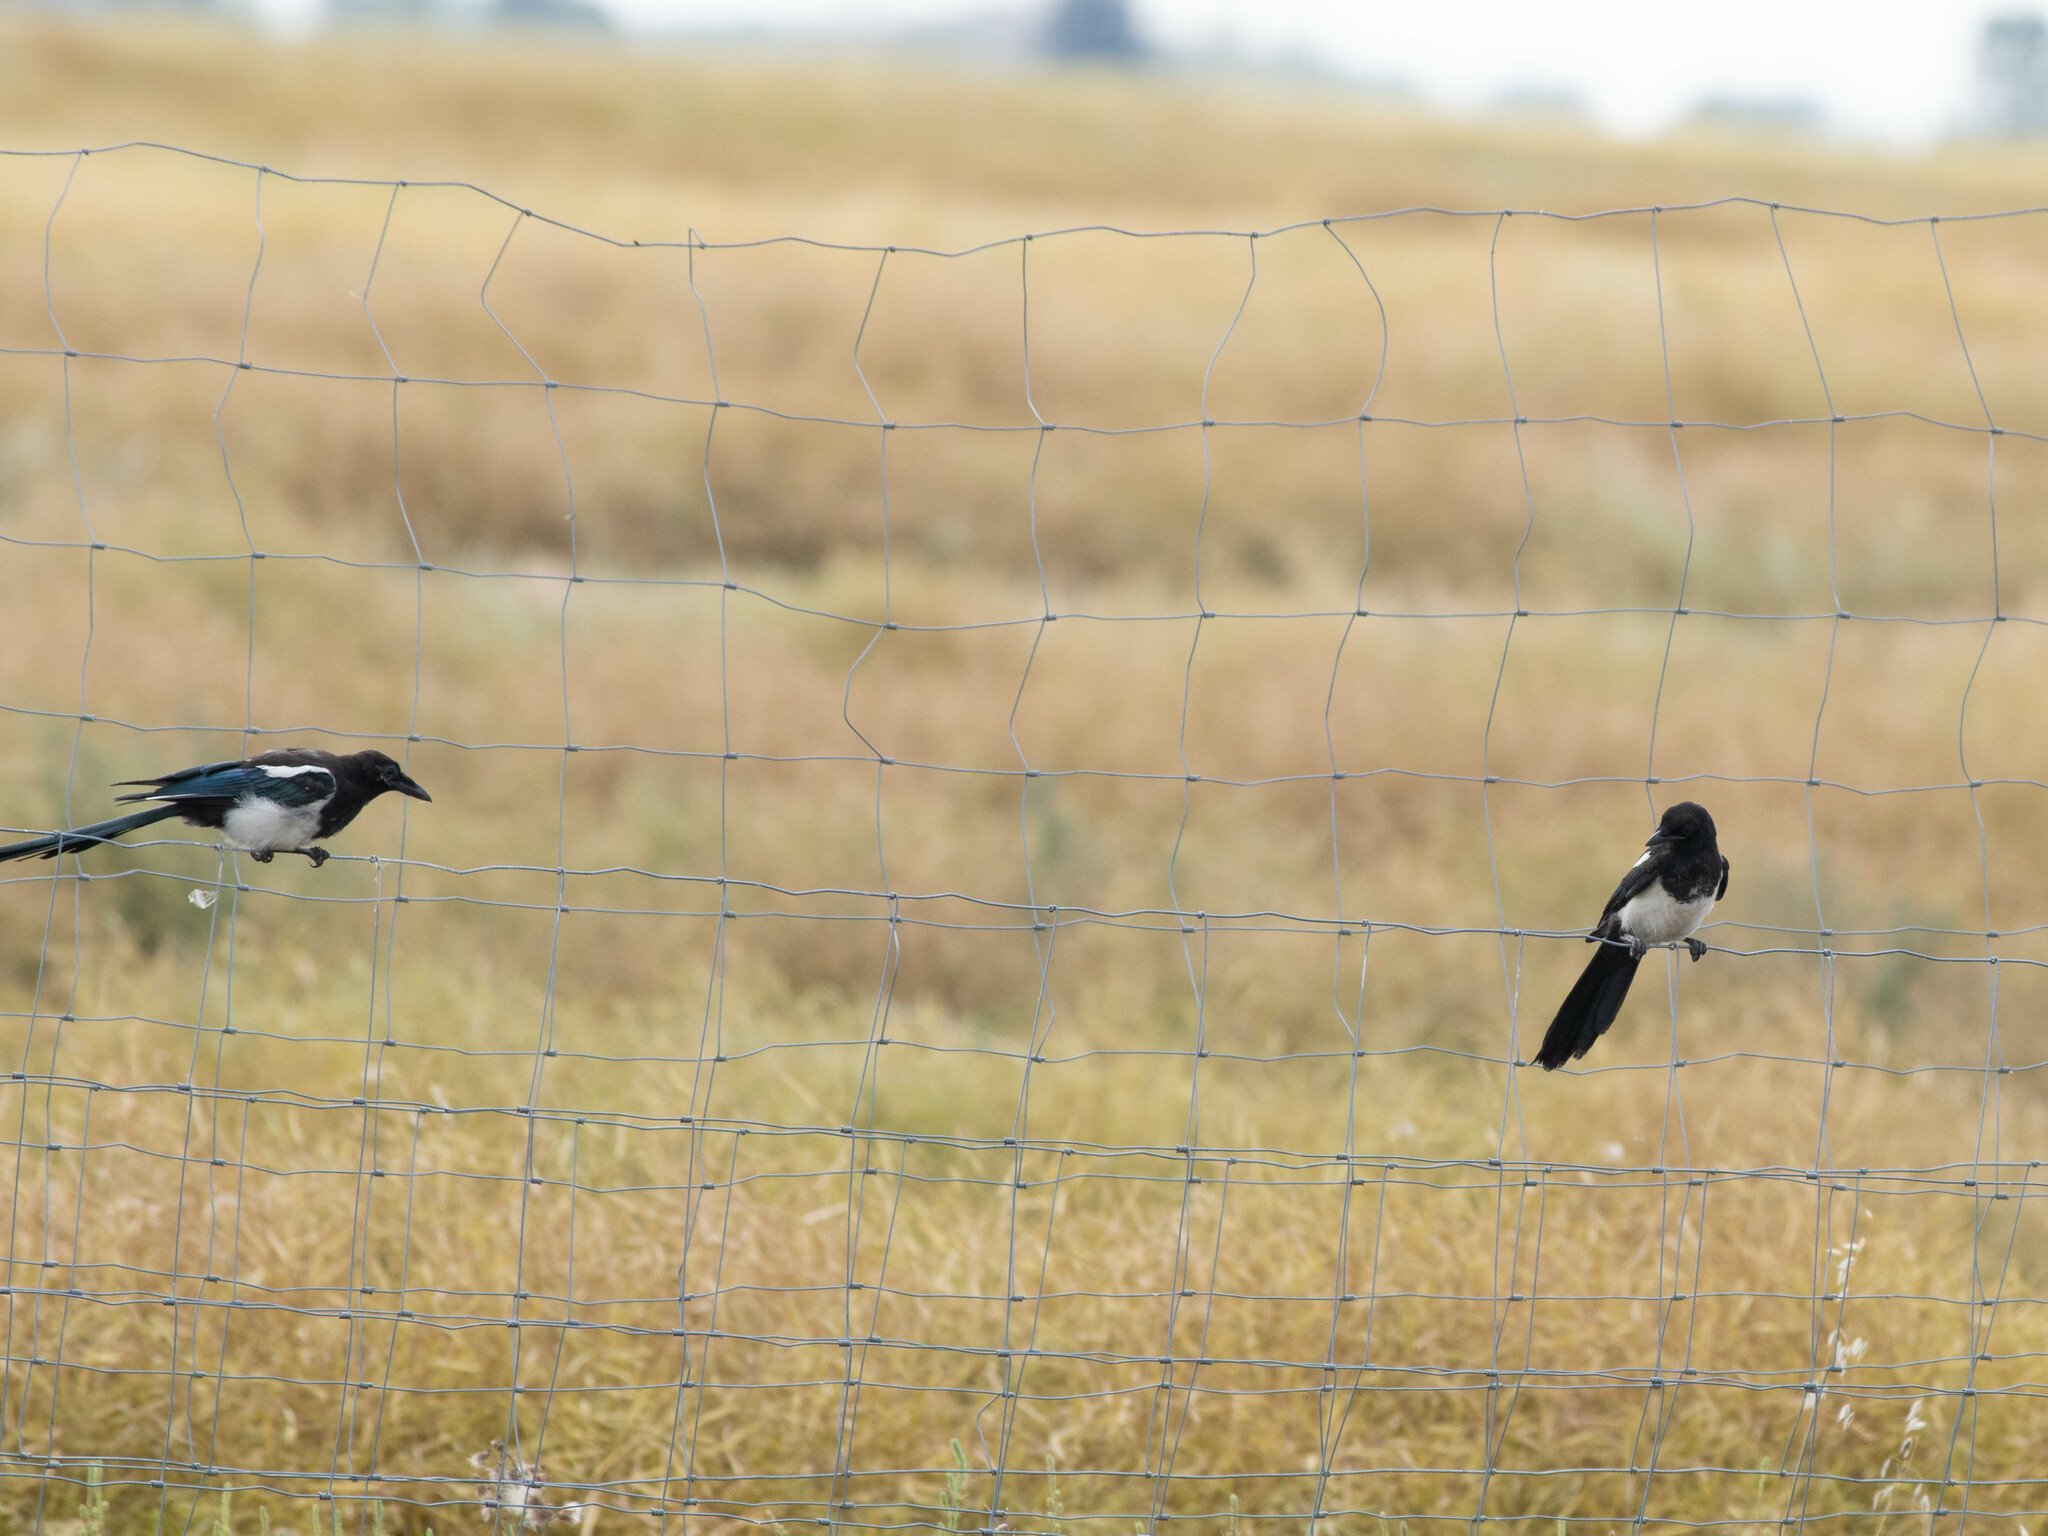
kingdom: Animalia
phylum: Chordata
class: Aves
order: Passeriformes
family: Corvidae
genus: Pica
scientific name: Pica hudsonia
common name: Black-billed magpie
